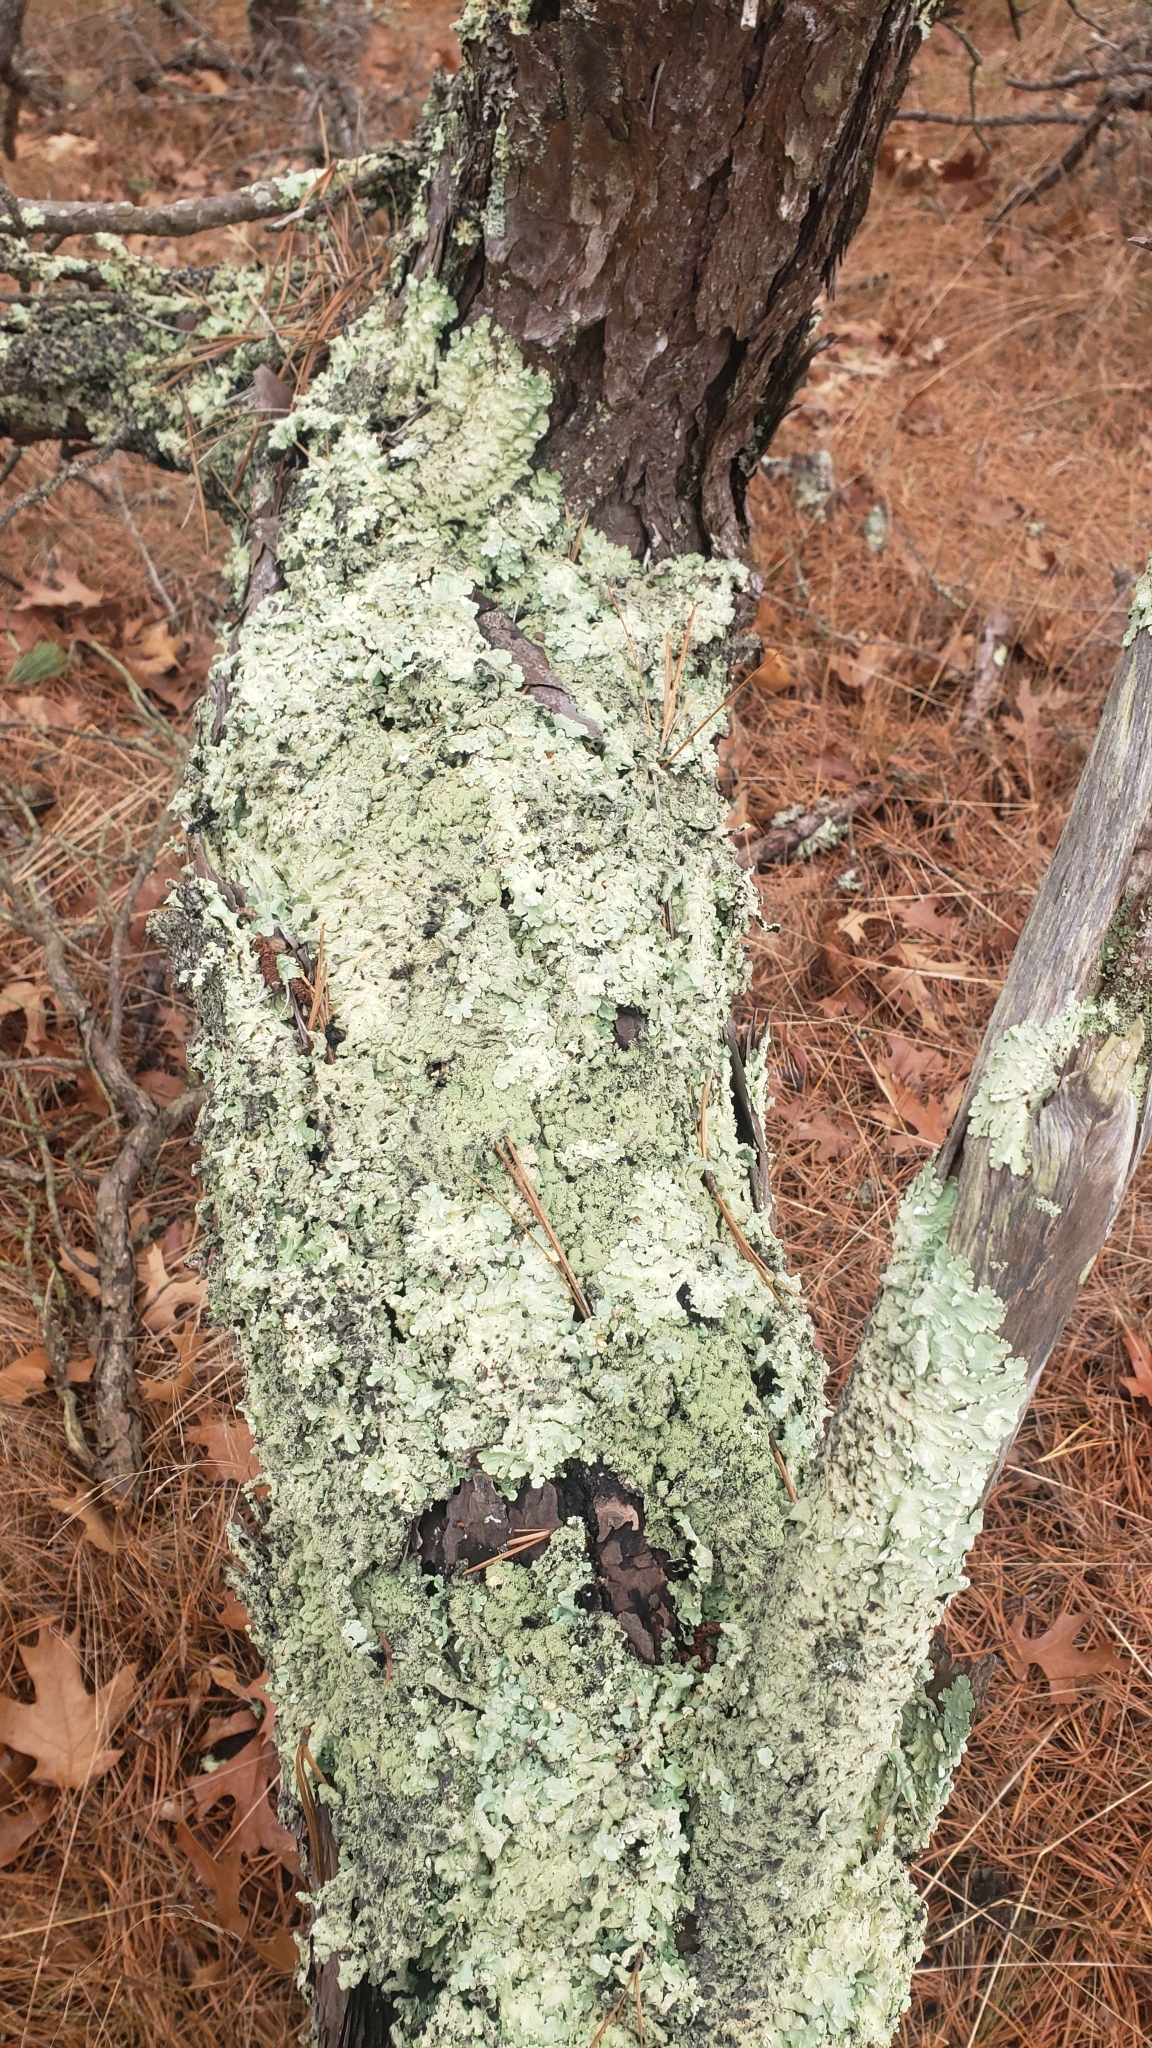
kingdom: Fungi
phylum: Ascomycota
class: Lecanoromycetes
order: Lecanorales
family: Parmeliaceae
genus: Flavoparmelia
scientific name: Flavoparmelia caperata
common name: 40-mile per hour lichen
